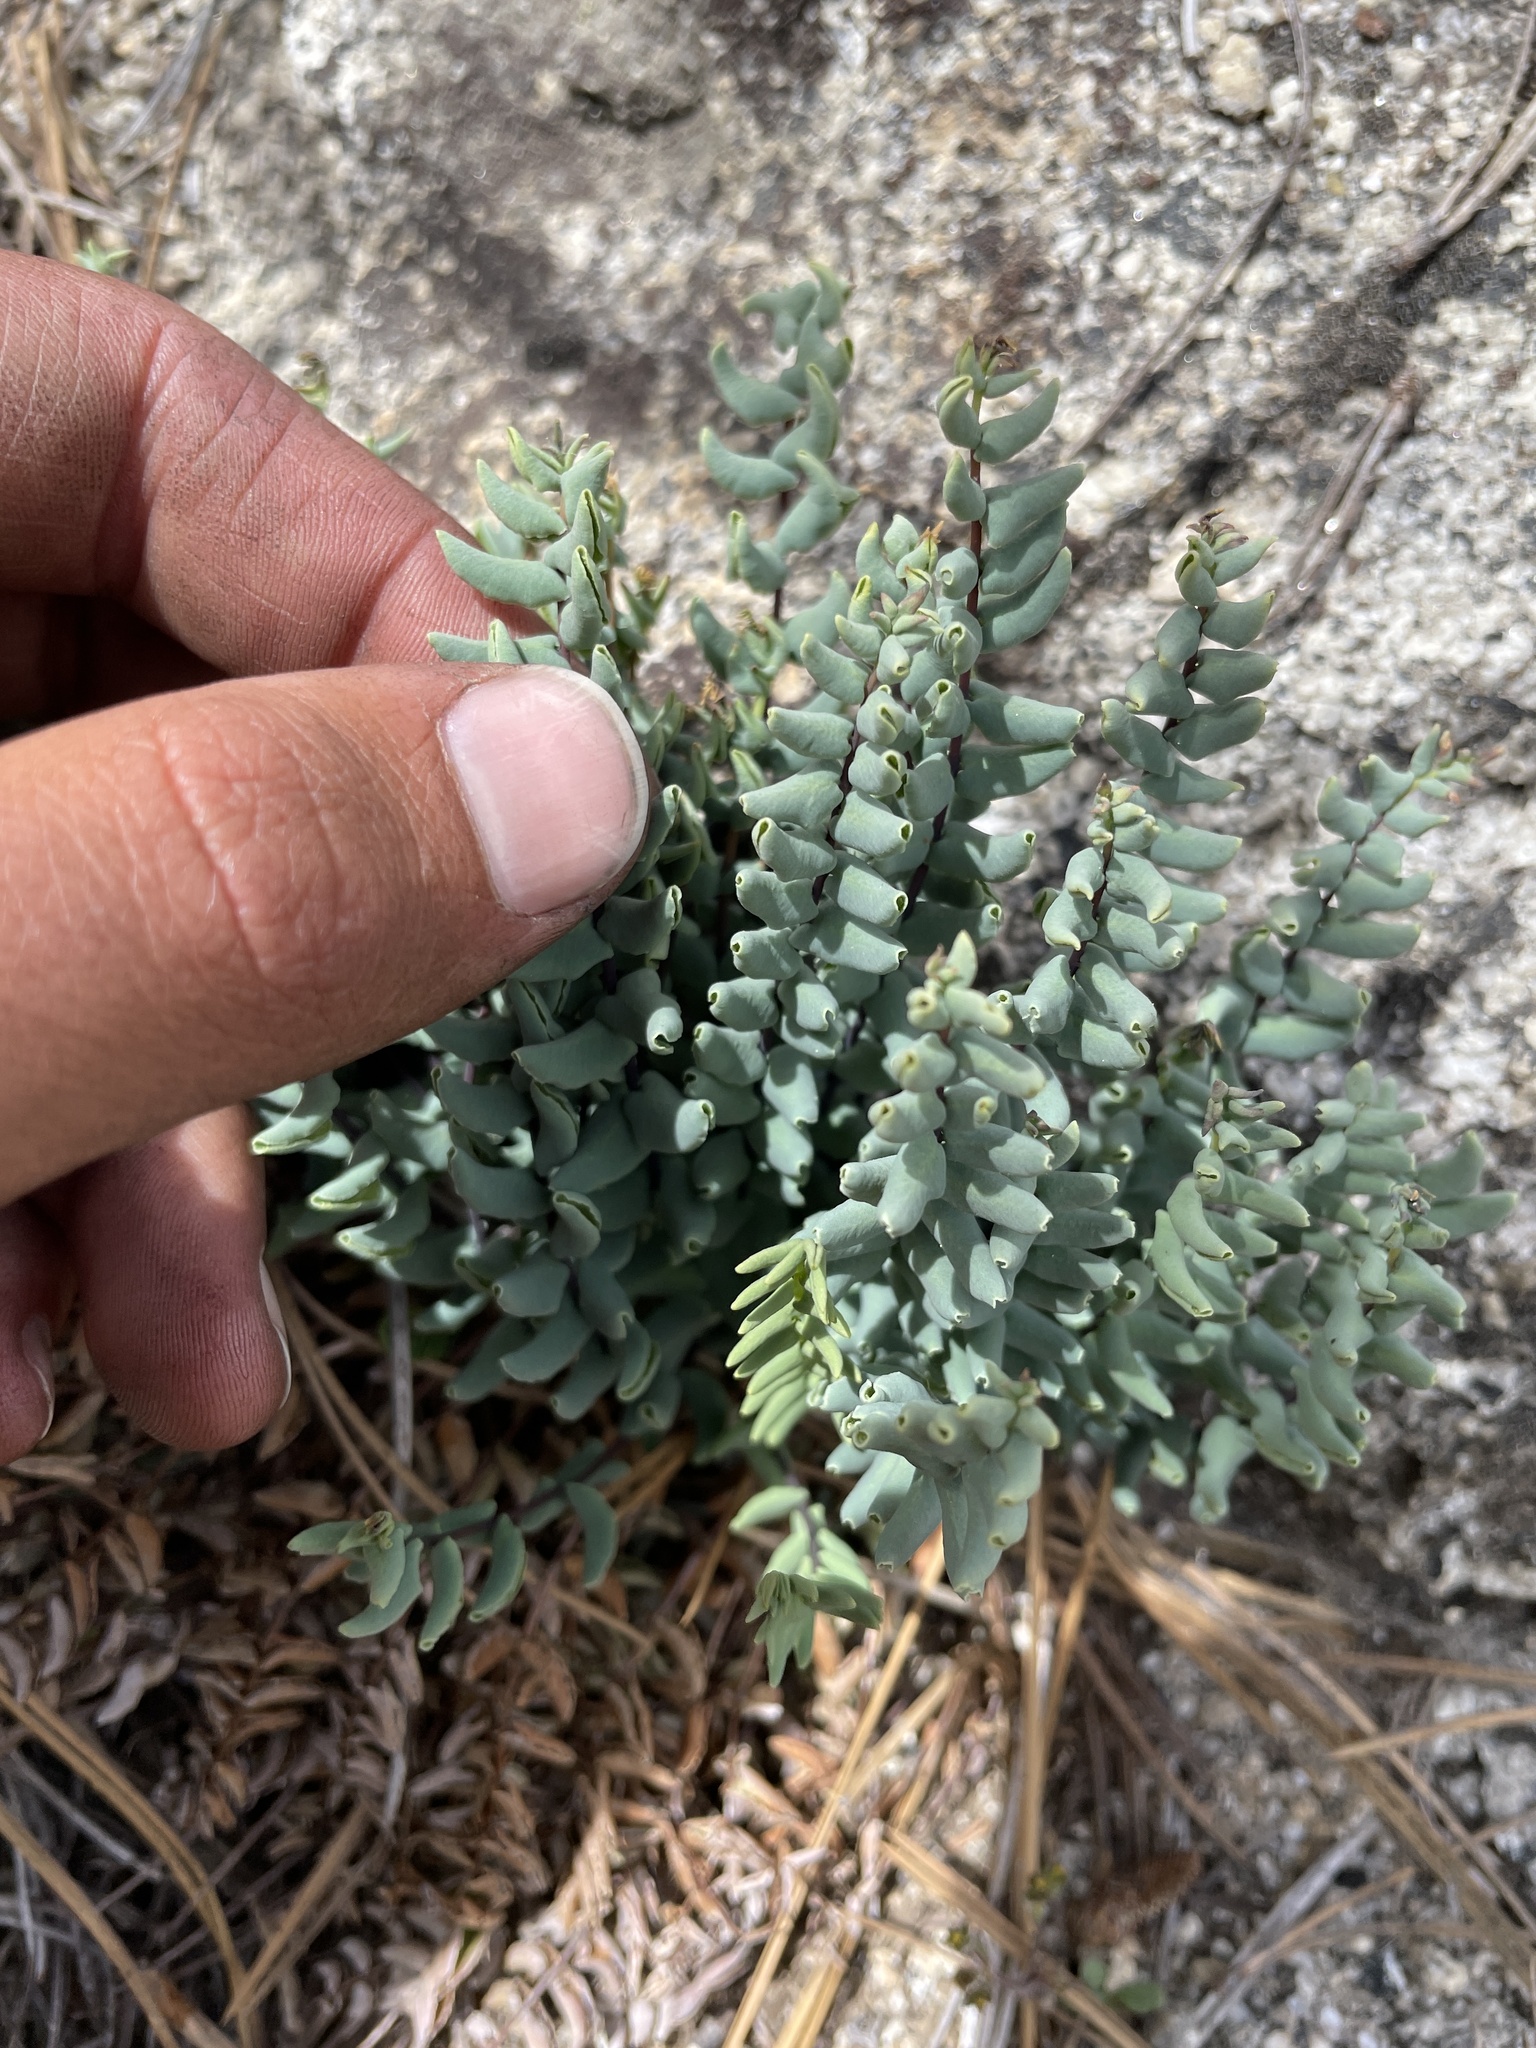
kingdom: Plantae
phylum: Tracheophyta
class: Polypodiopsida
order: Polypodiales
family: Pteridaceae
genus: Pellaea
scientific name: Pellaea bridgesii
